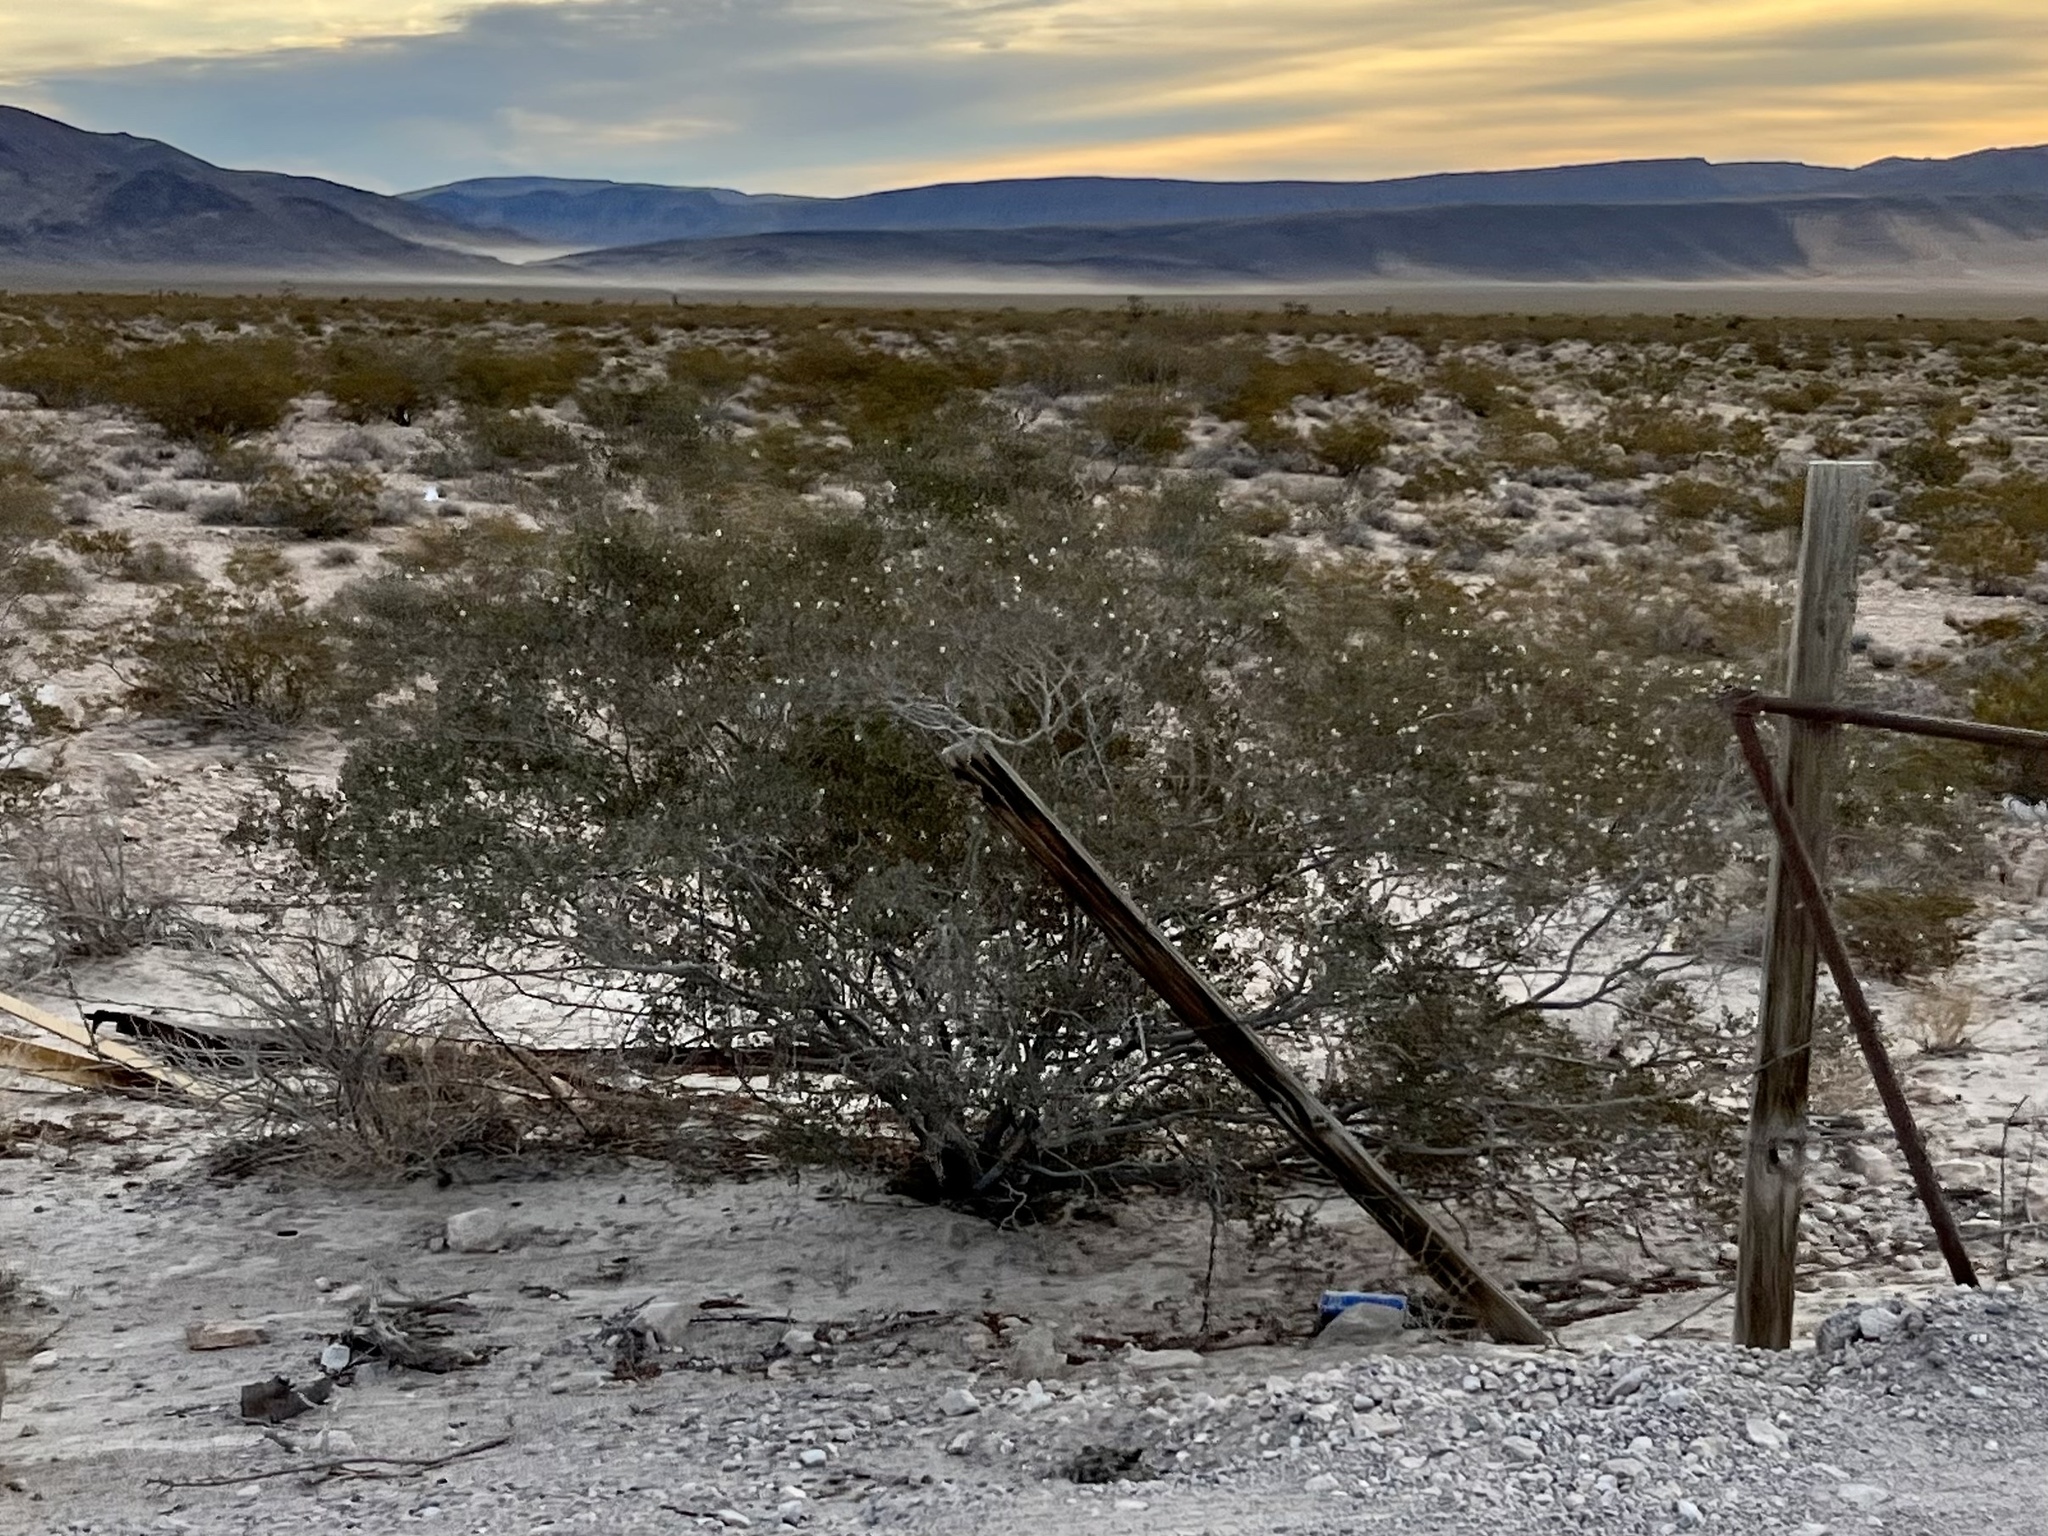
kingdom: Plantae
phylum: Tracheophyta
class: Magnoliopsida
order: Zygophyllales
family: Zygophyllaceae
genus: Larrea
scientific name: Larrea tridentata
